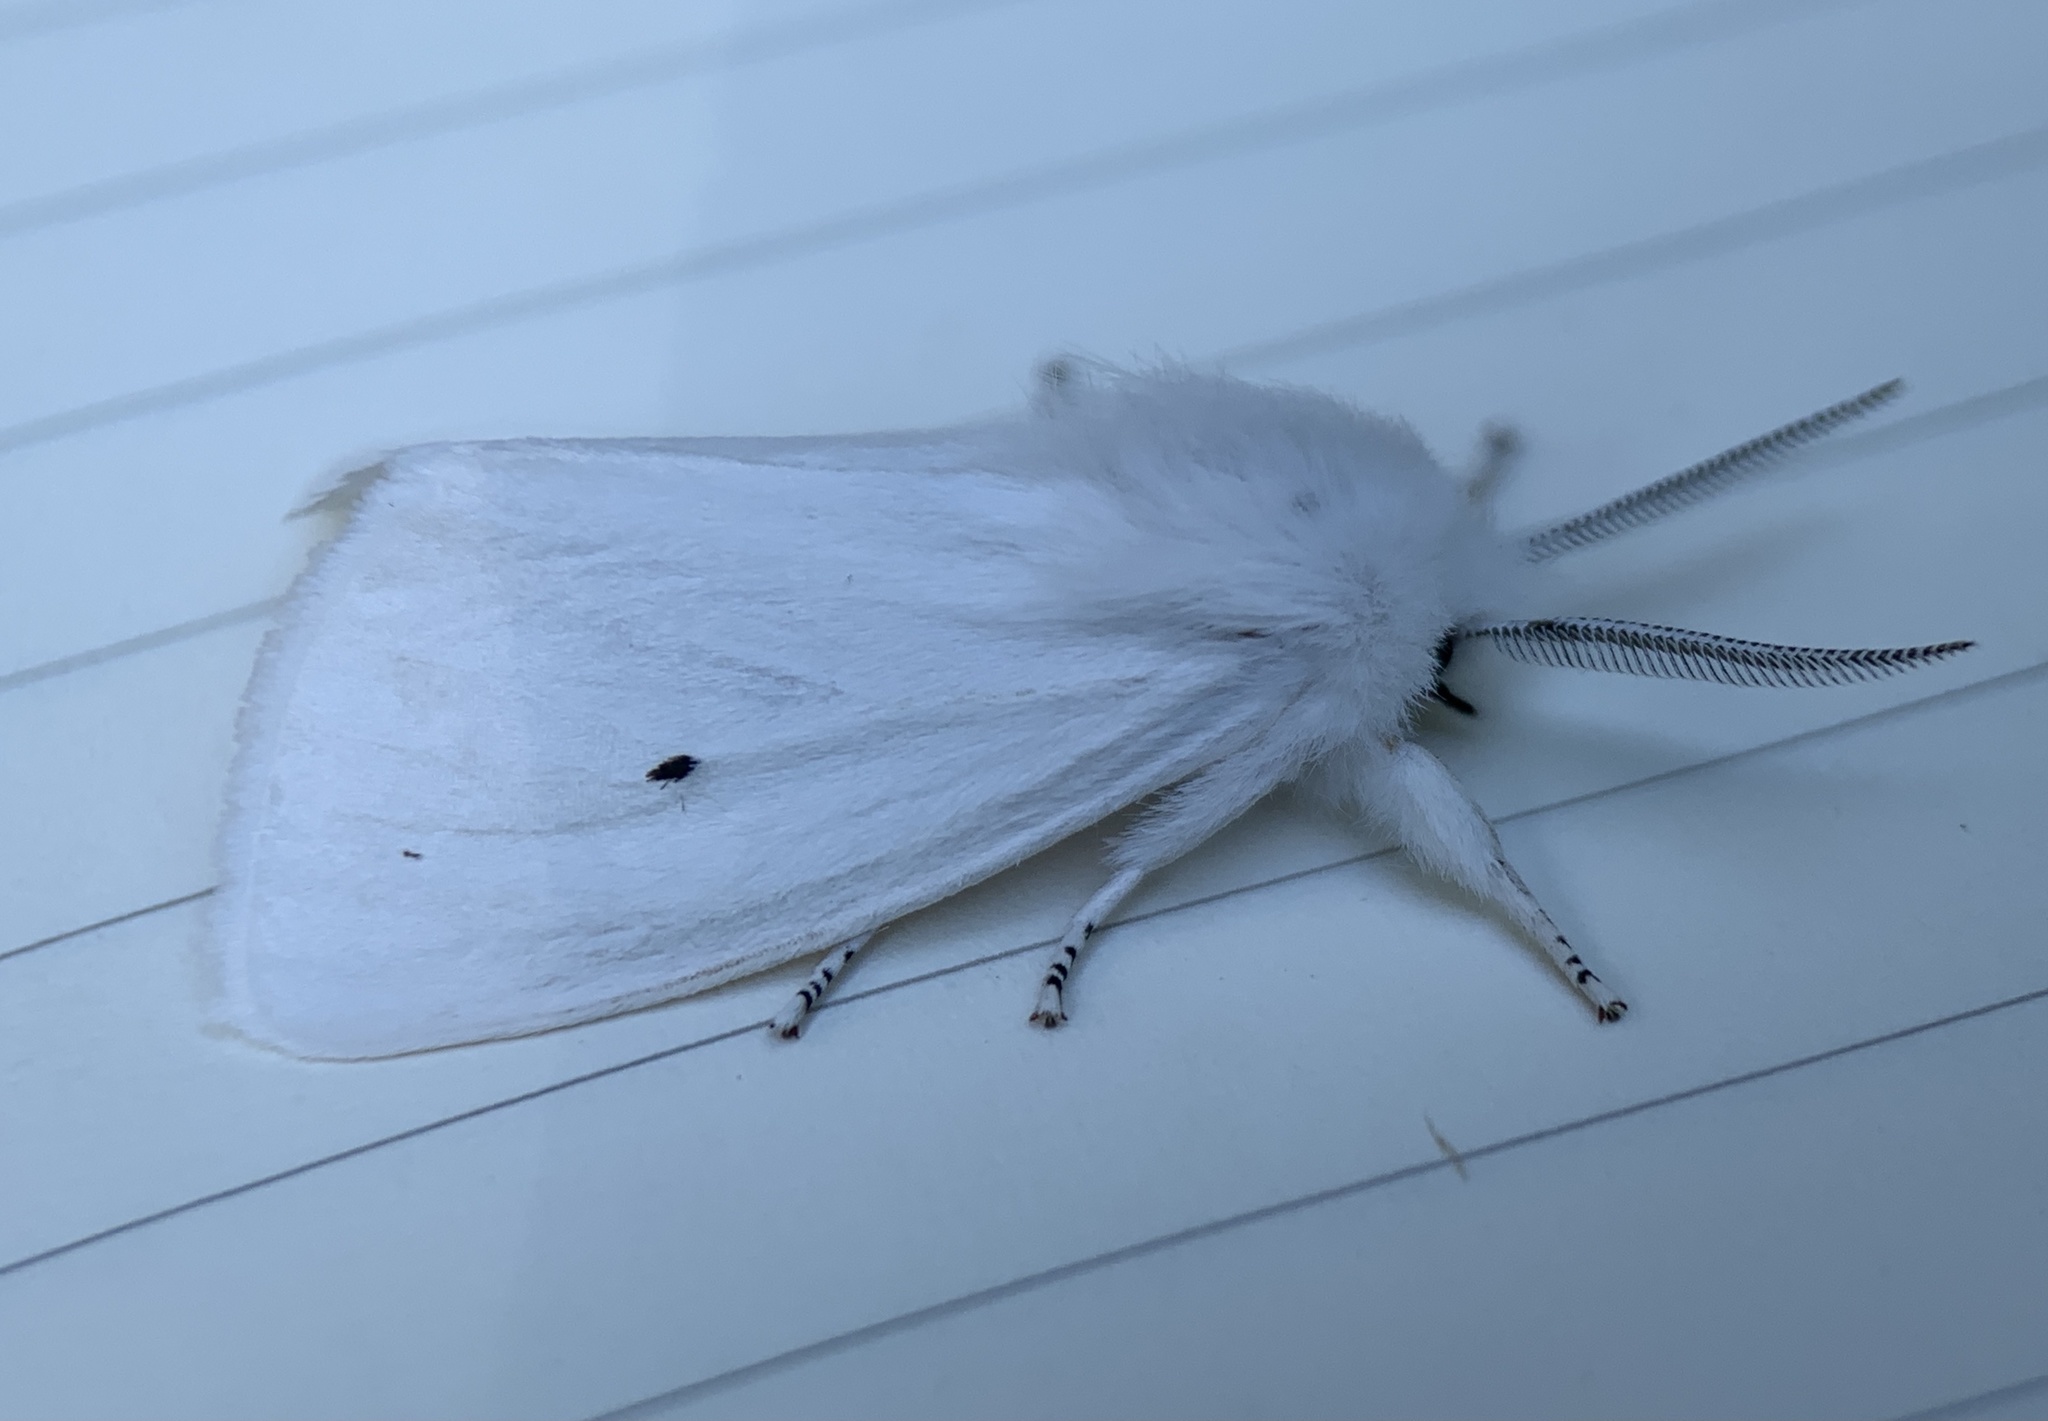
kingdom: Animalia
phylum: Arthropoda
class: Insecta
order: Lepidoptera
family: Erebidae
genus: Spilosoma
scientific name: Spilosoma virginica
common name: Virginia tiger moth
